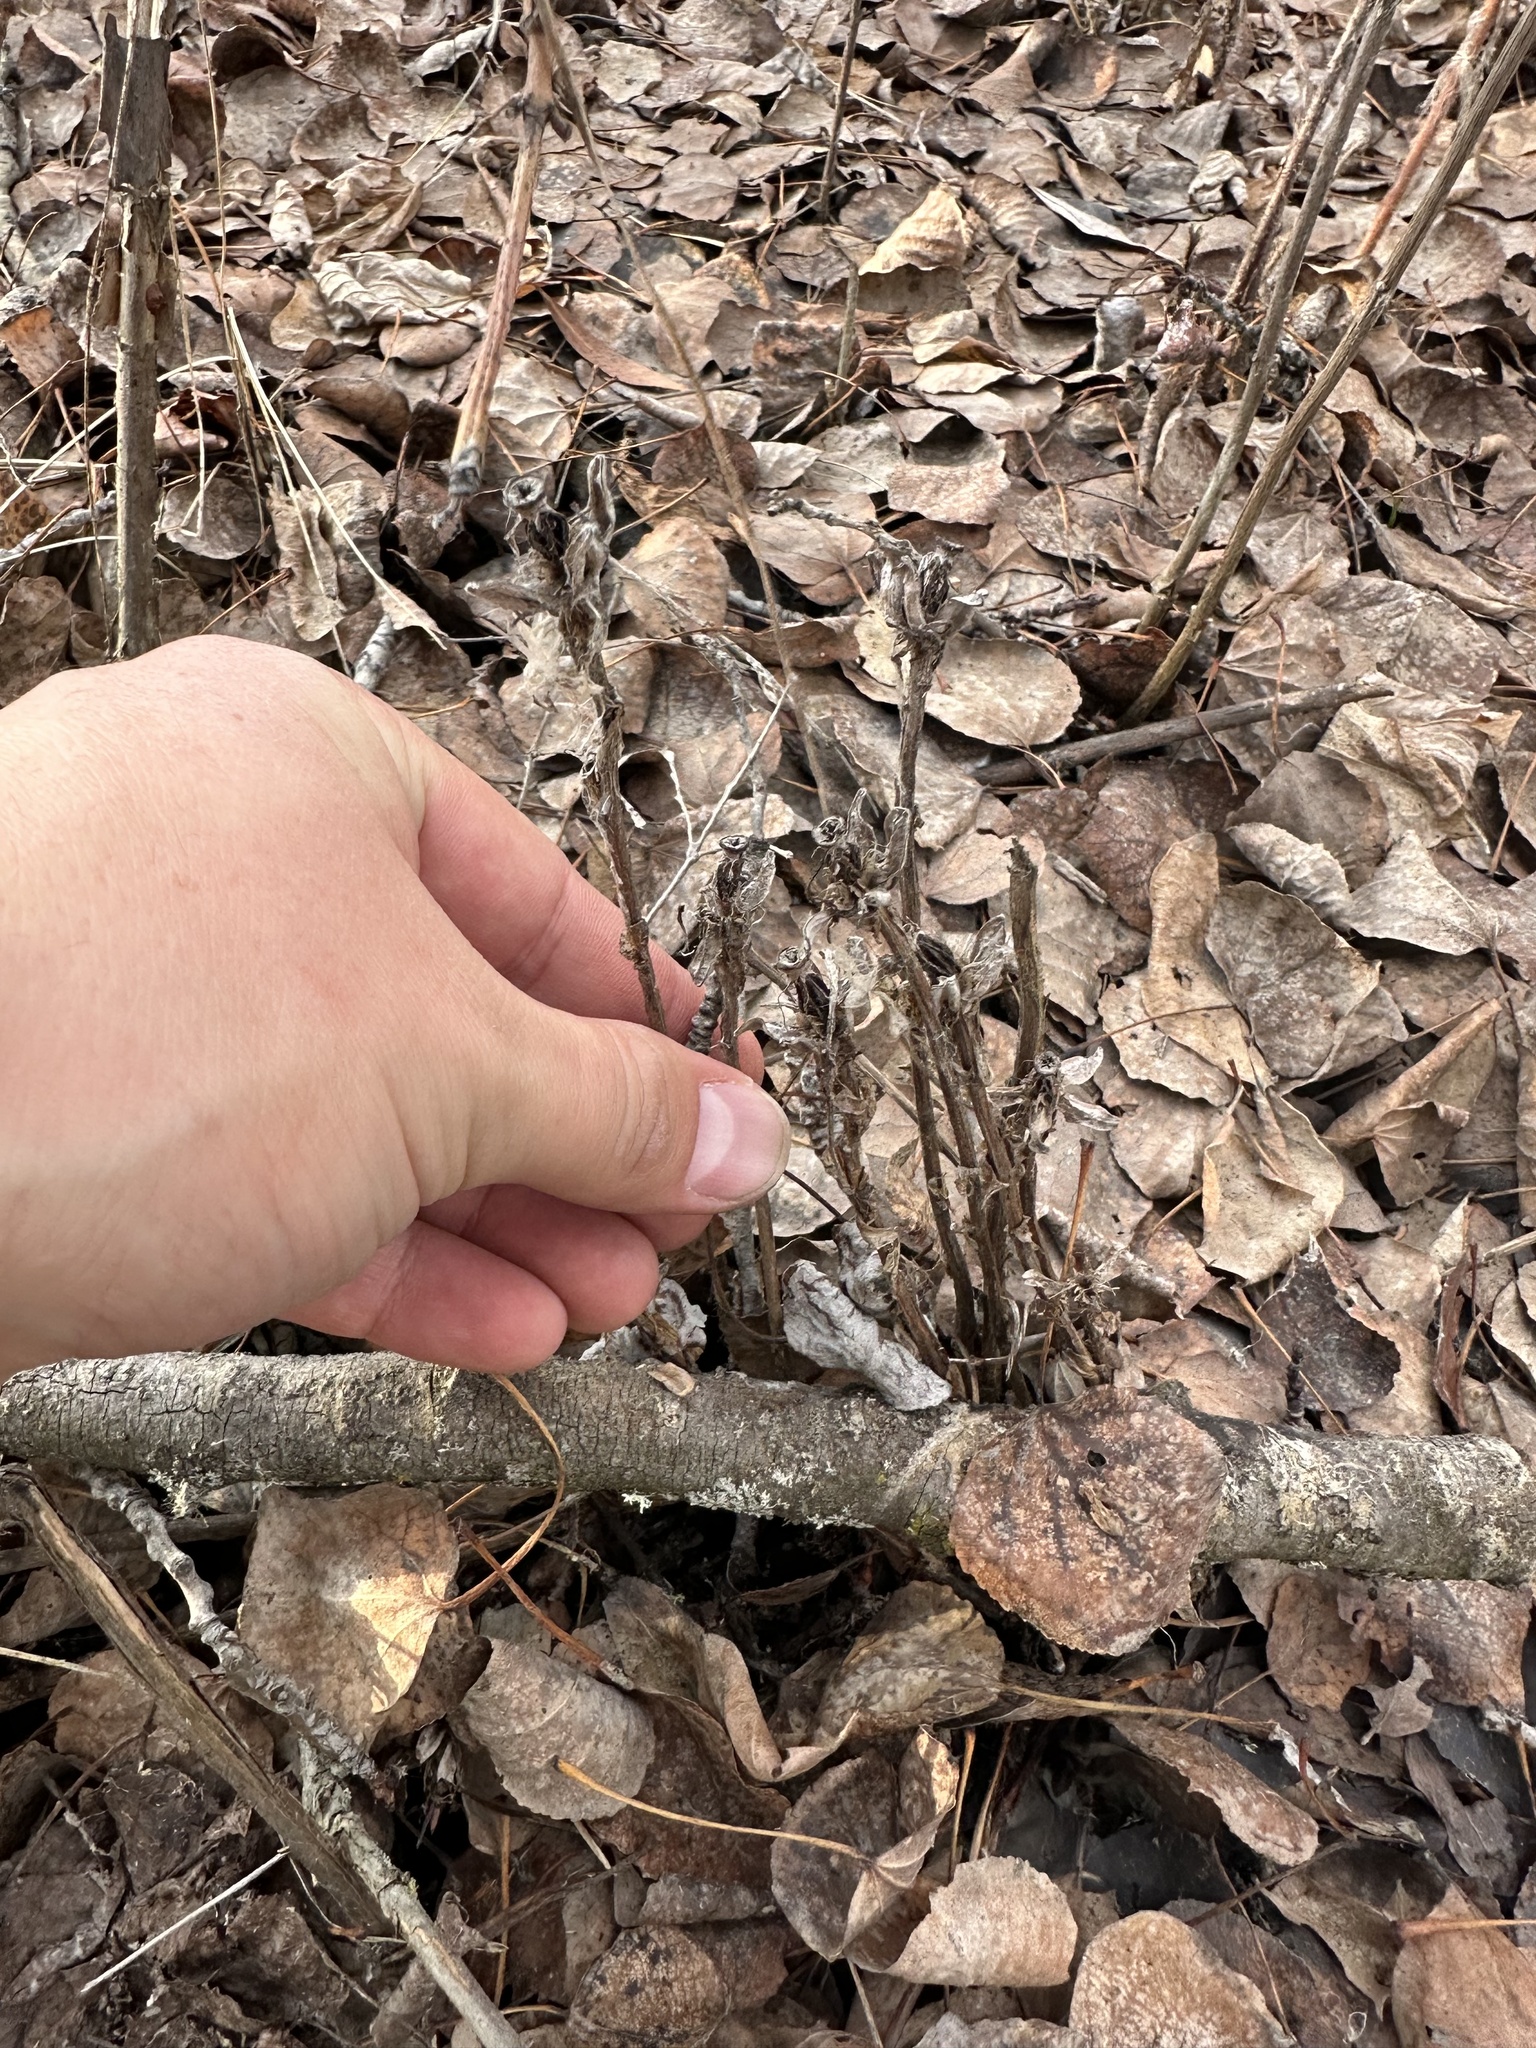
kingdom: Plantae
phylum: Tracheophyta
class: Magnoliopsida
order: Ericales
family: Ericaceae
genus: Monotropa
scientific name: Monotropa uniflora
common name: Convulsion root
